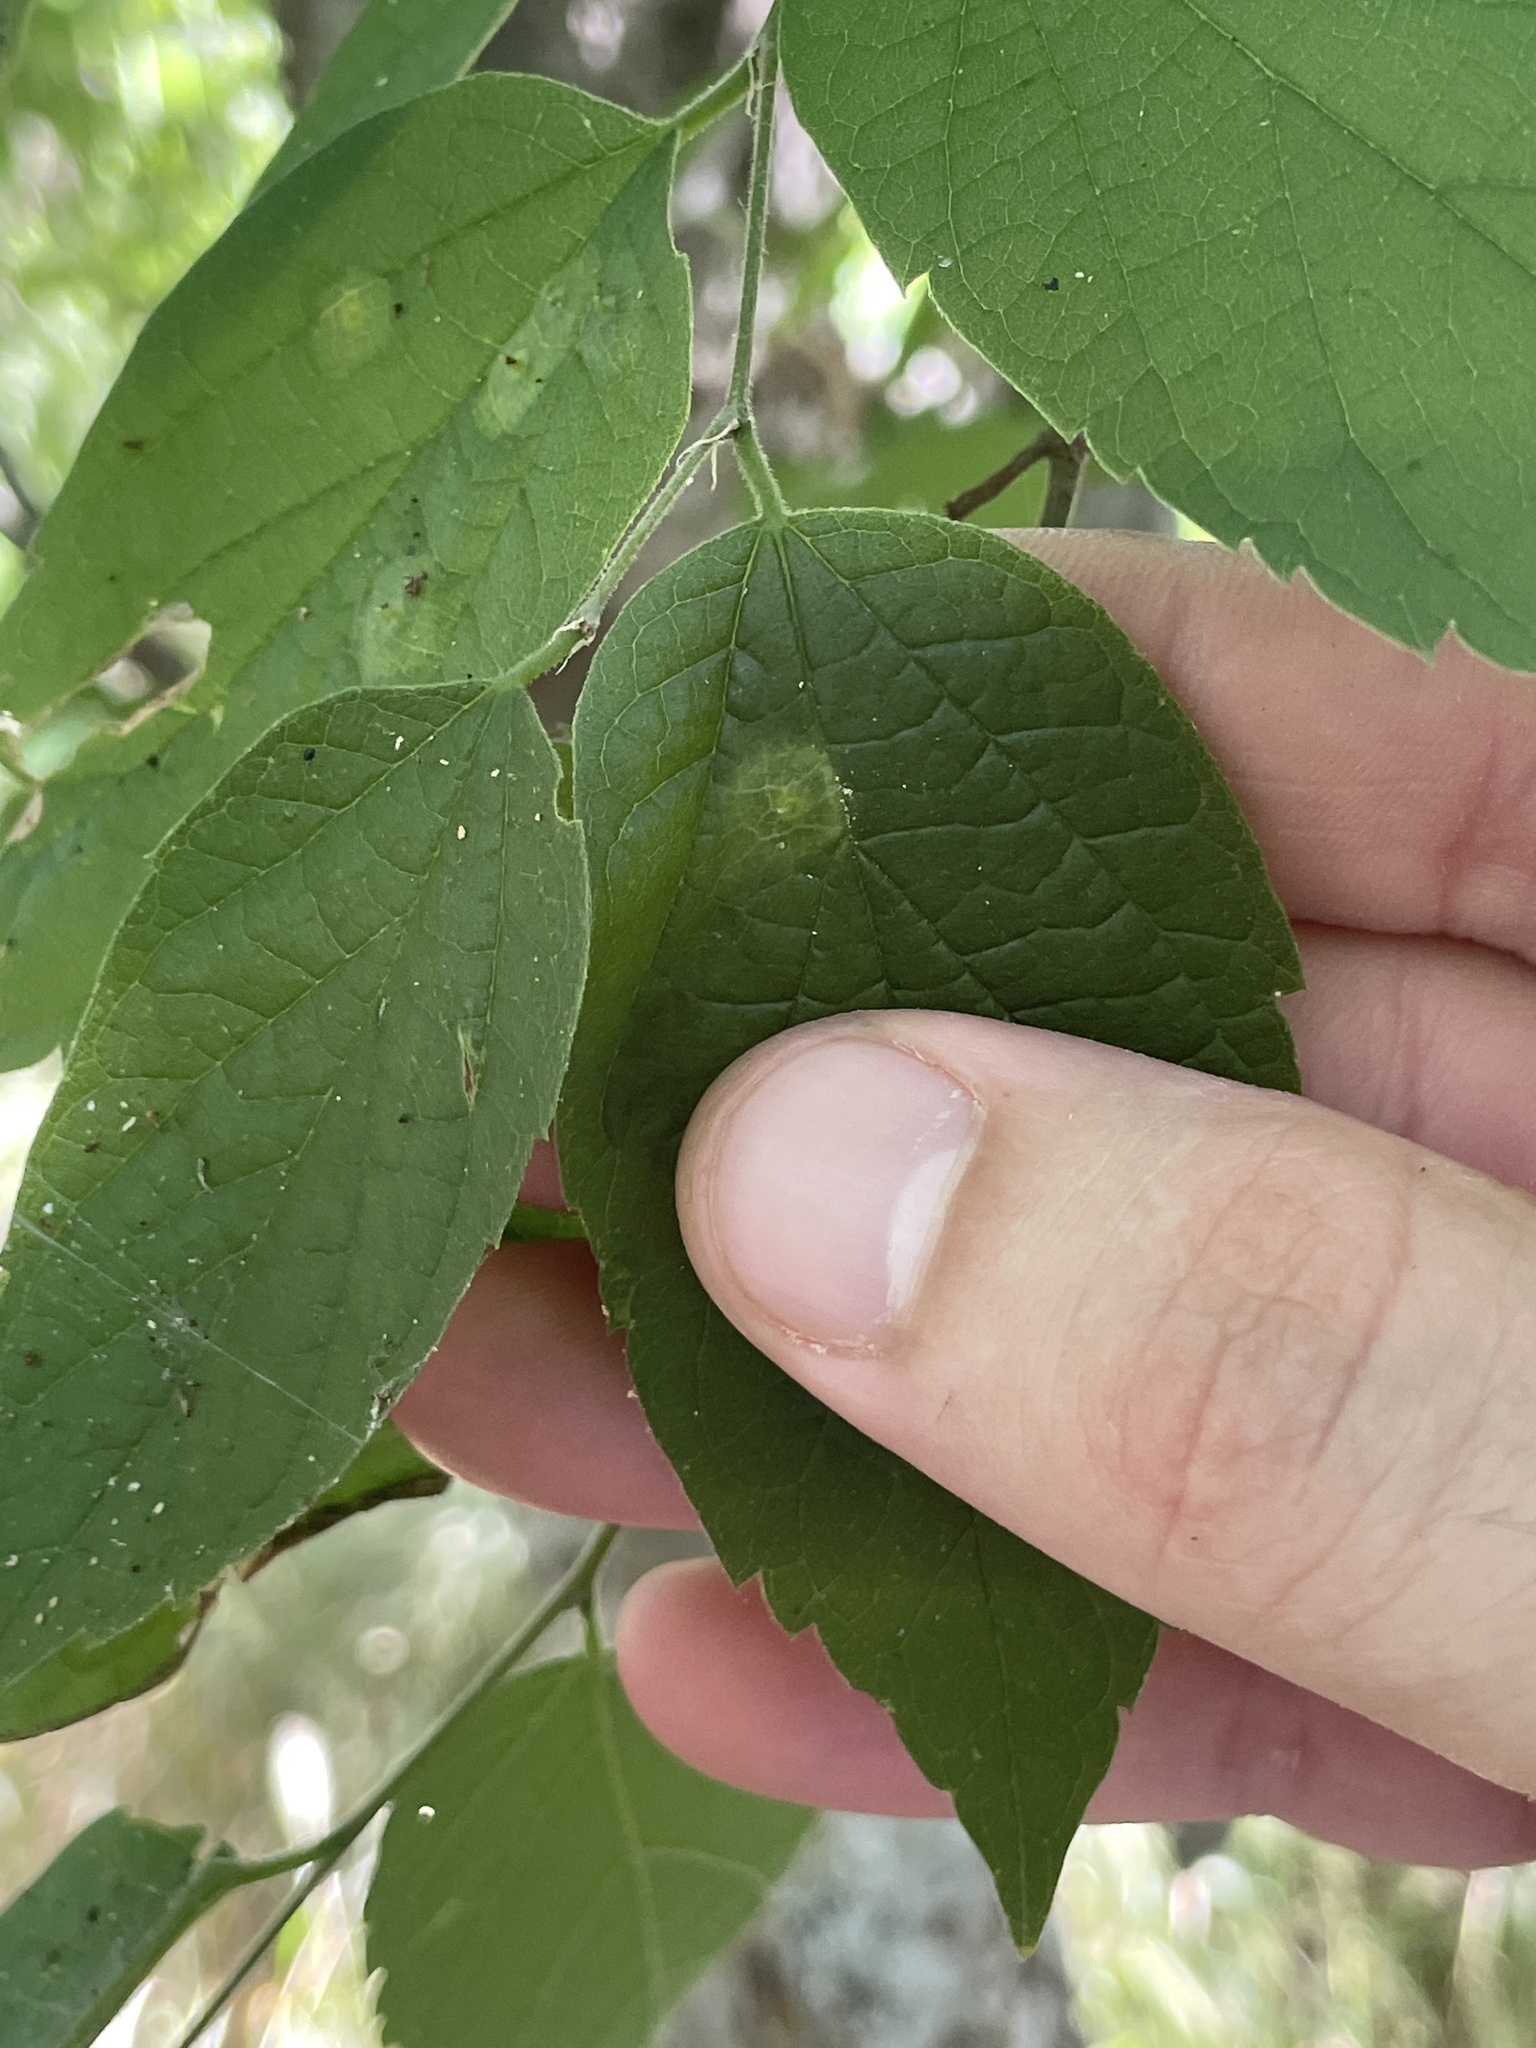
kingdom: Animalia
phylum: Arthropoda
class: Insecta
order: Hemiptera
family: Aphalaridae
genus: Pachypsylla
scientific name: Pachypsylla celtidisasterisca
